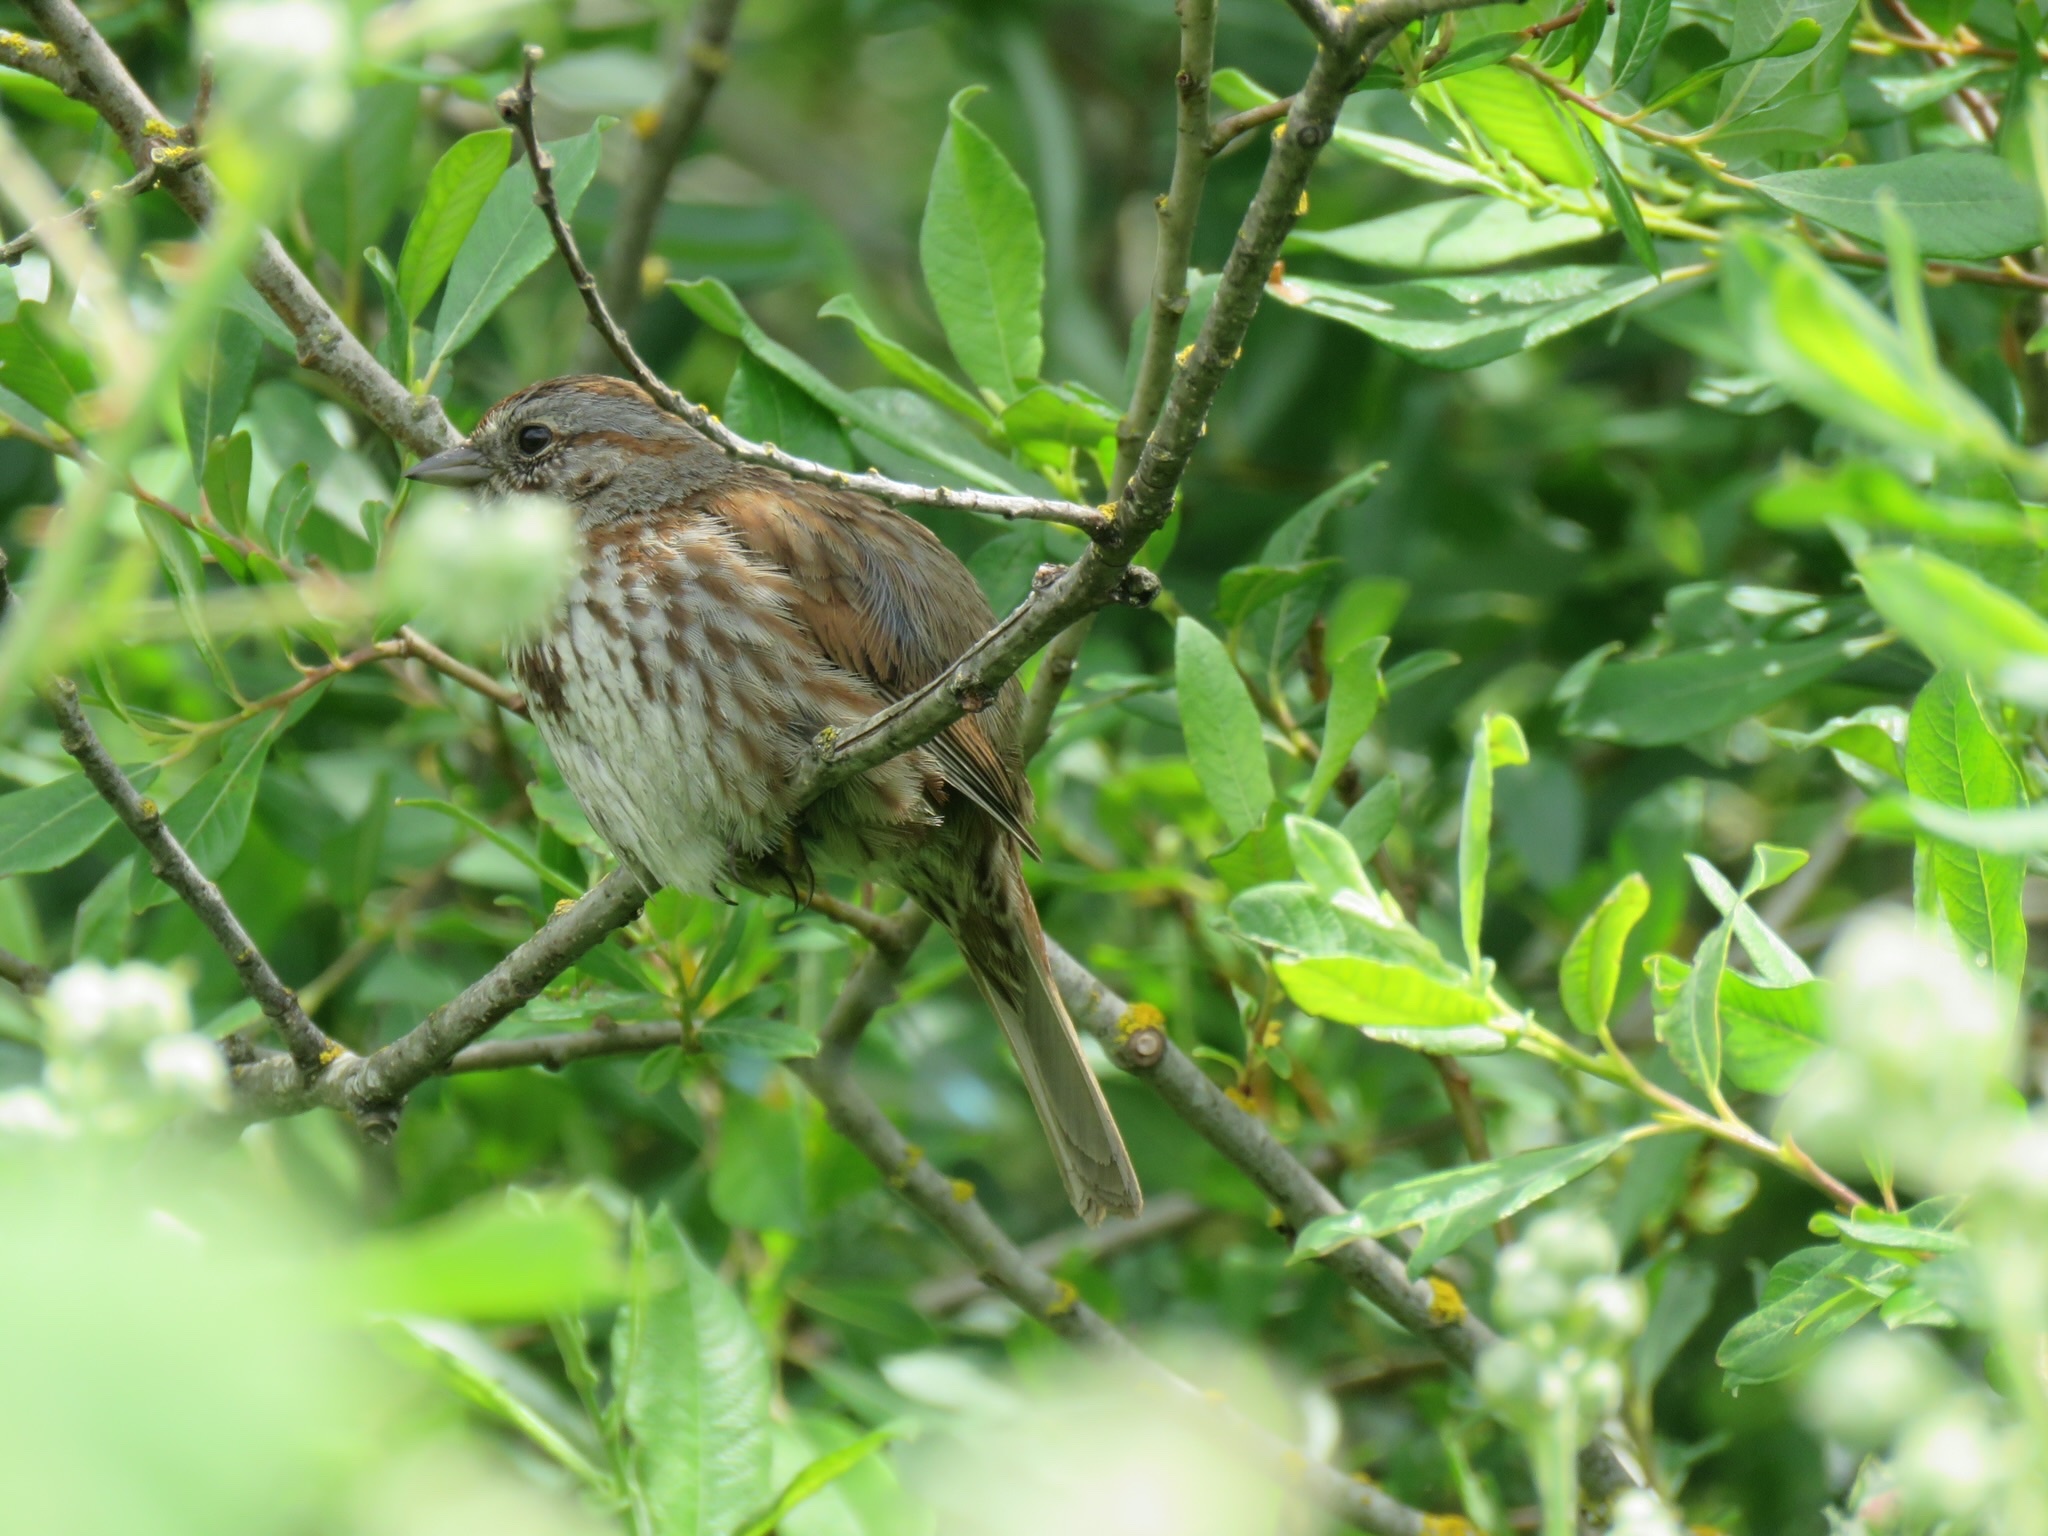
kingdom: Animalia
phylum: Chordata
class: Aves
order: Passeriformes
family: Passerellidae
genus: Melospiza
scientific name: Melospiza melodia
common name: Song sparrow
